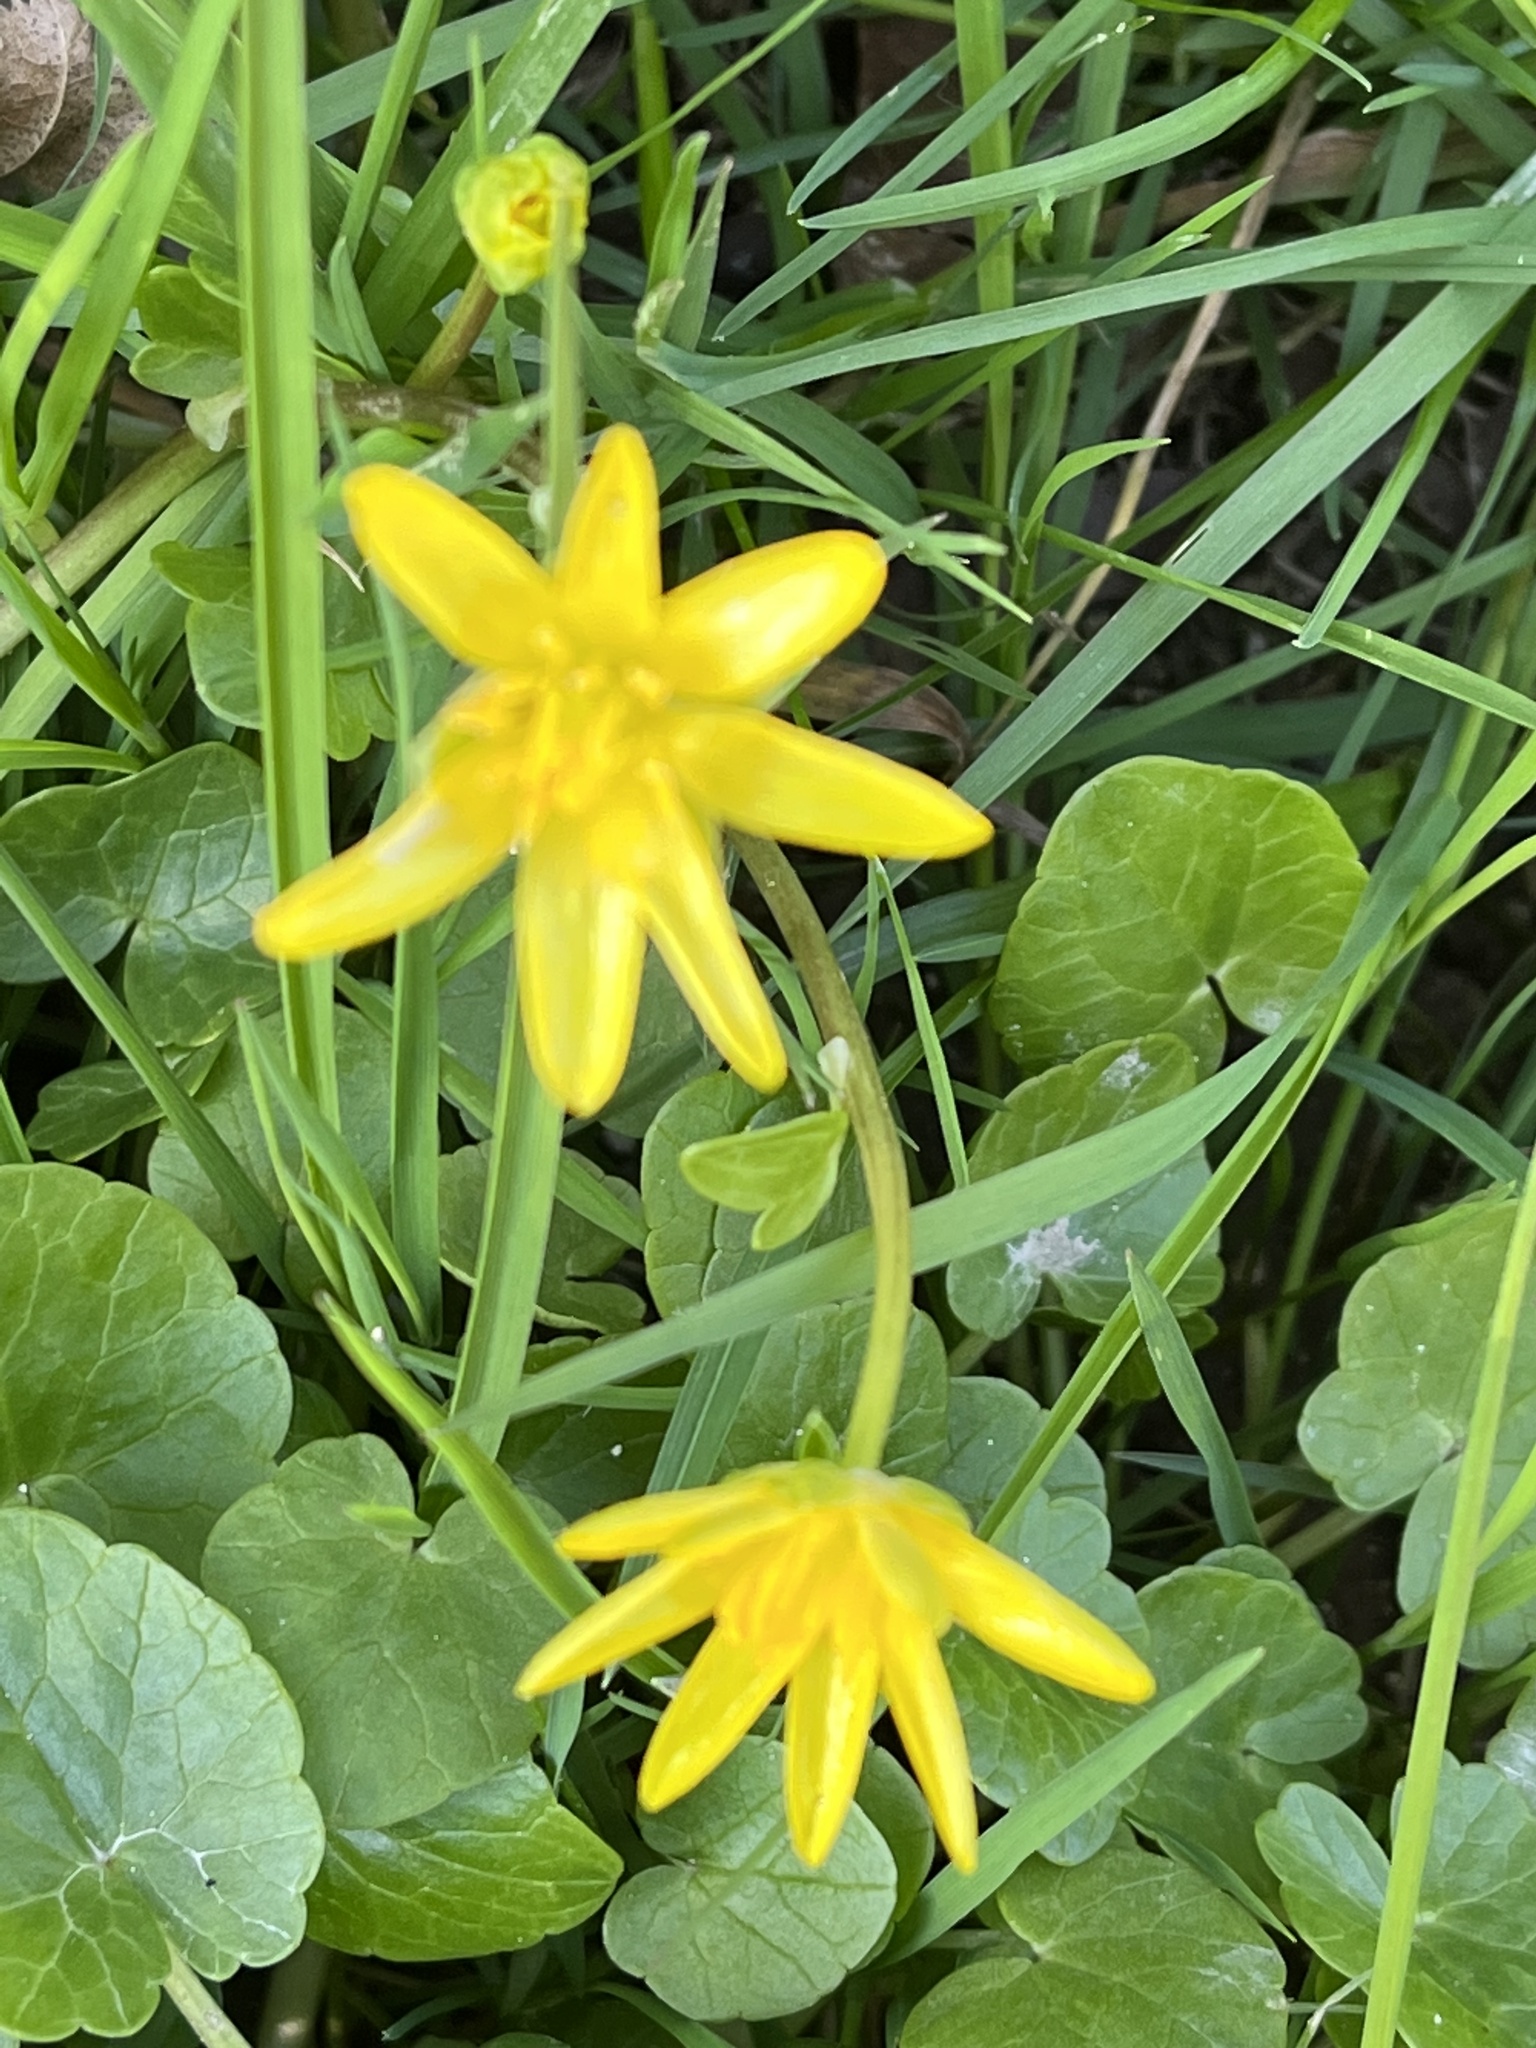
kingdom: Plantae
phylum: Tracheophyta
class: Magnoliopsida
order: Ranunculales
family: Ranunculaceae
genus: Ficaria
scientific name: Ficaria verna
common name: Lesser celandine
